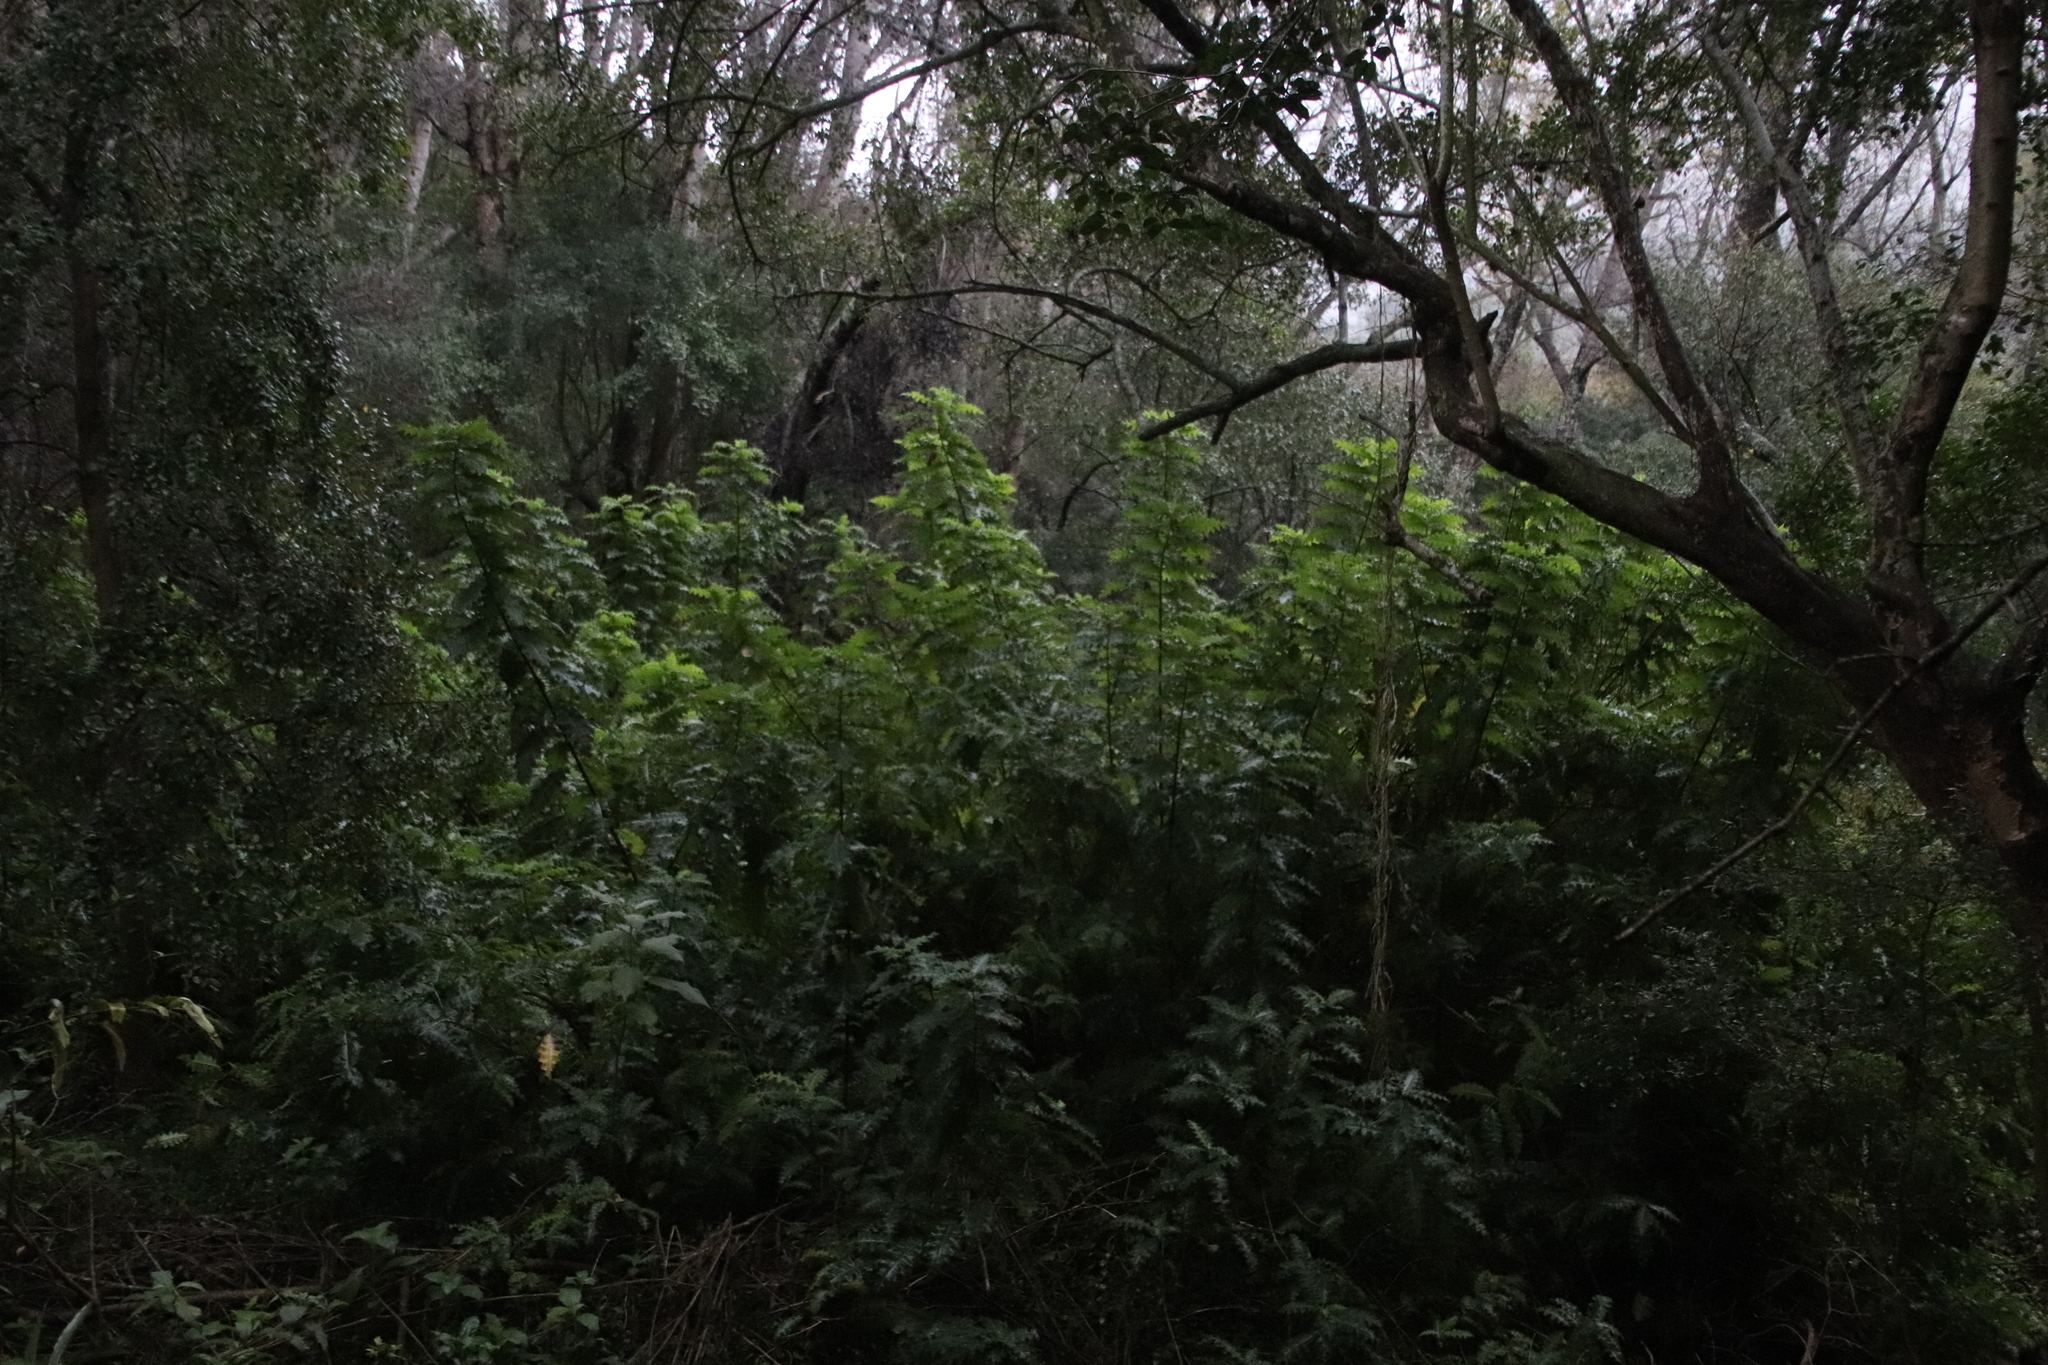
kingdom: Plantae
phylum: Tracheophyta
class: Magnoliopsida
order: Lamiales
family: Acanthaceae
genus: Acanthus
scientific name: Acanthus polystachyus
